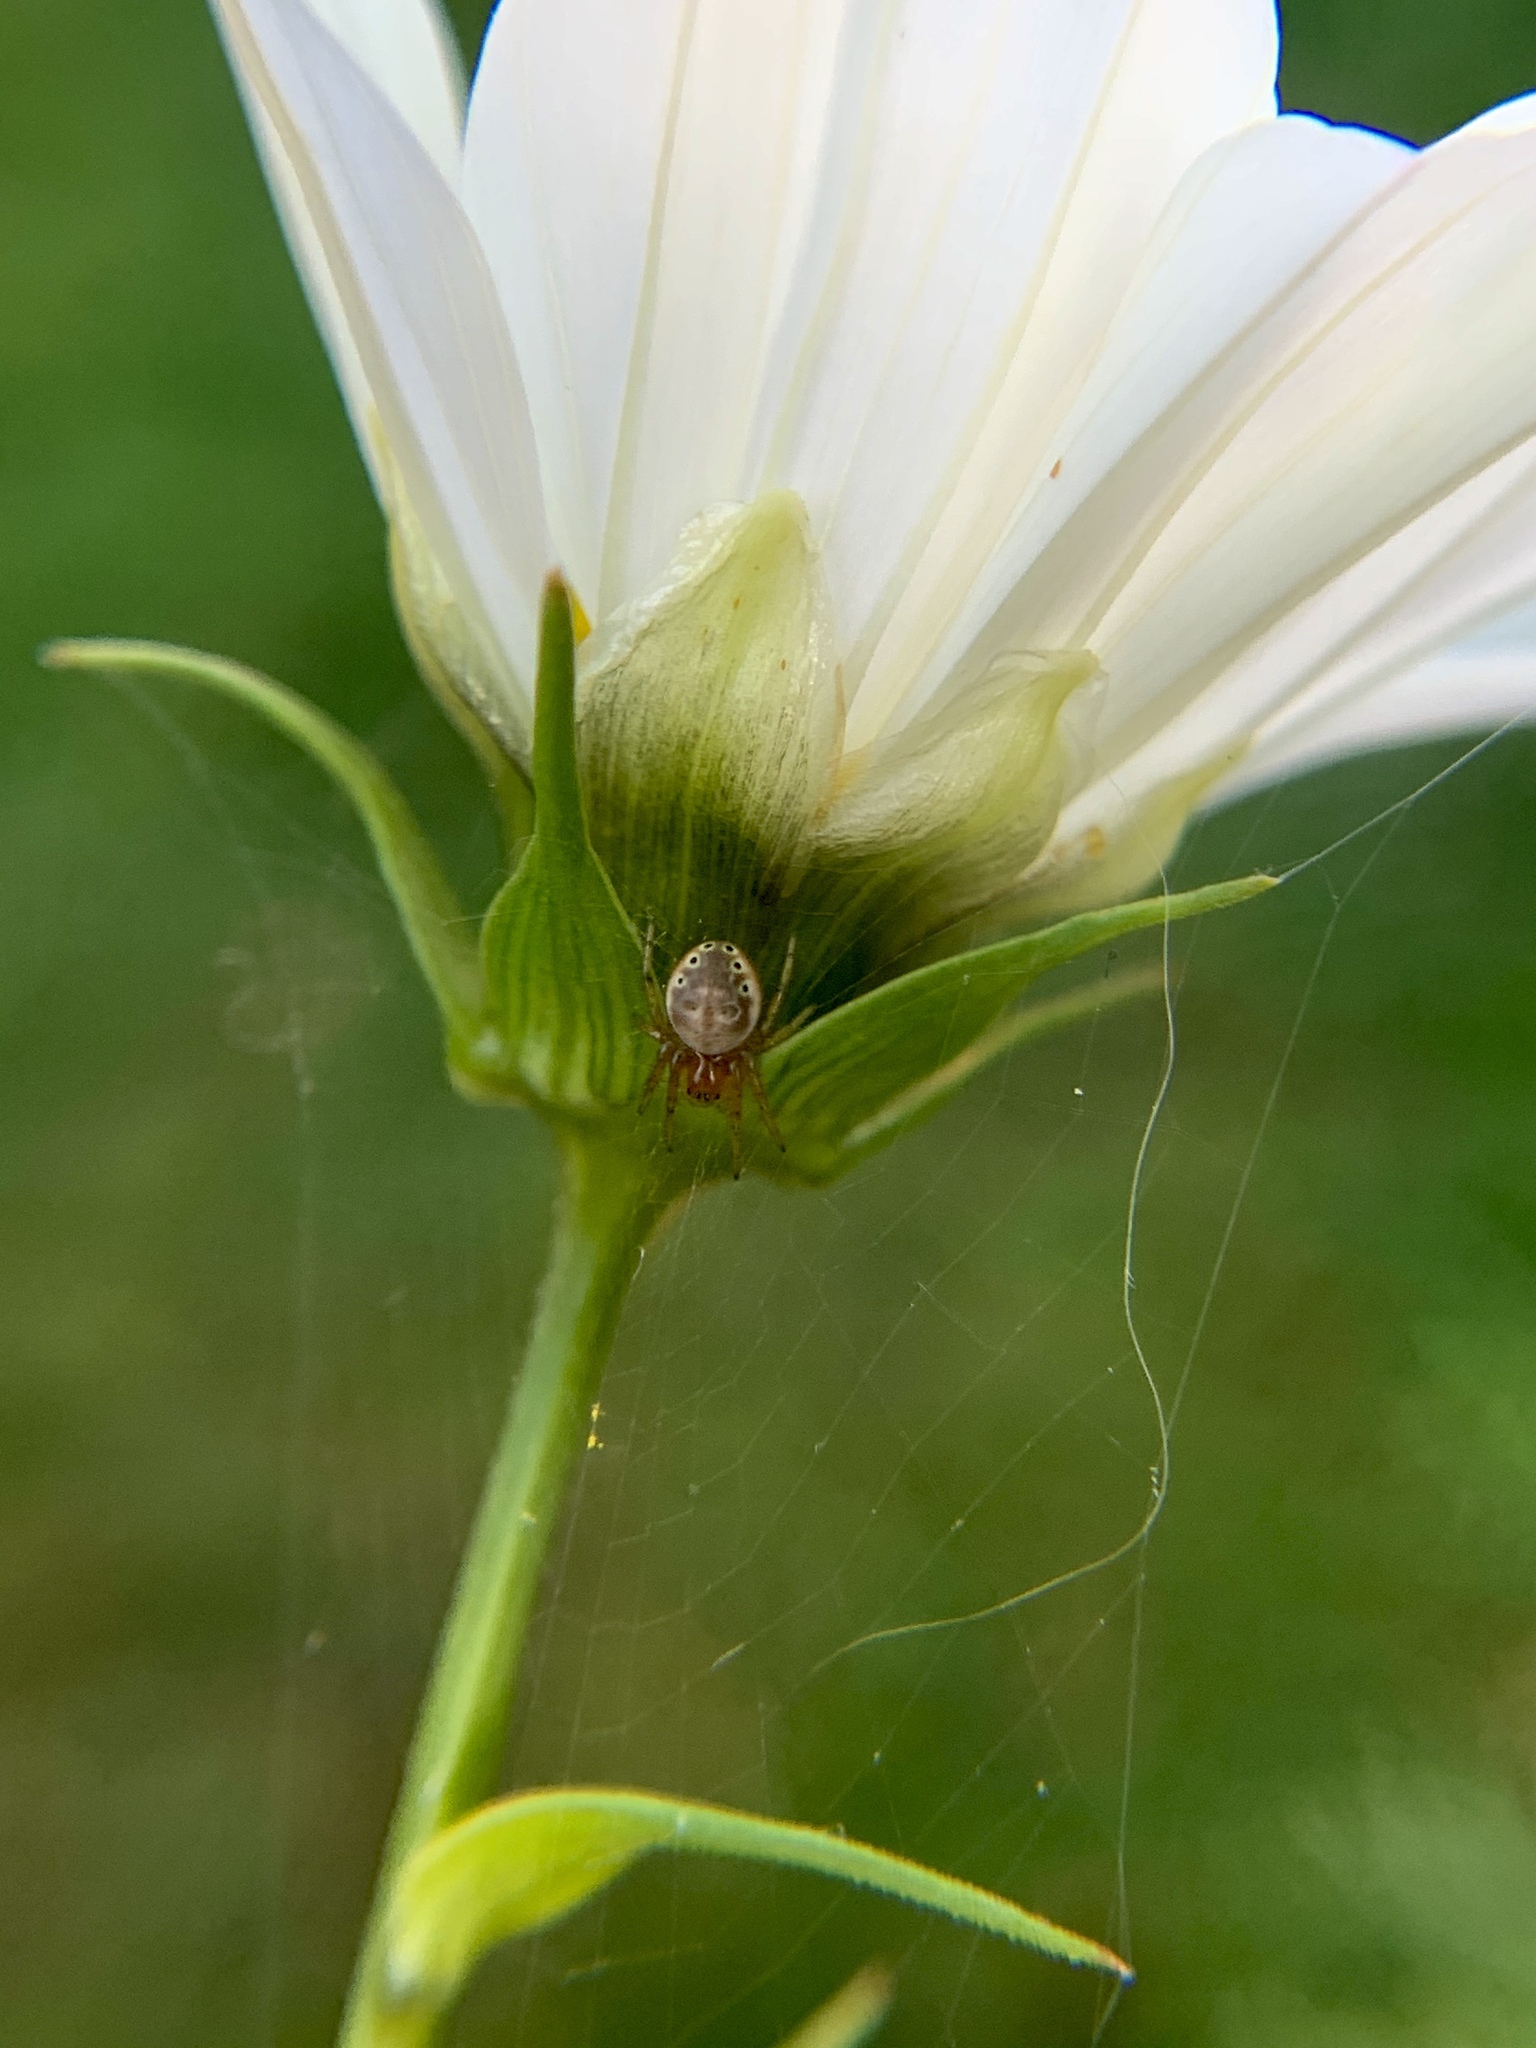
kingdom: Animalia
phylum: Arthropoda
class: Arachnida
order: Araneae
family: Araneidae
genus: Araniella
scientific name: Araniella displicata
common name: Sixspotted orb weaver
